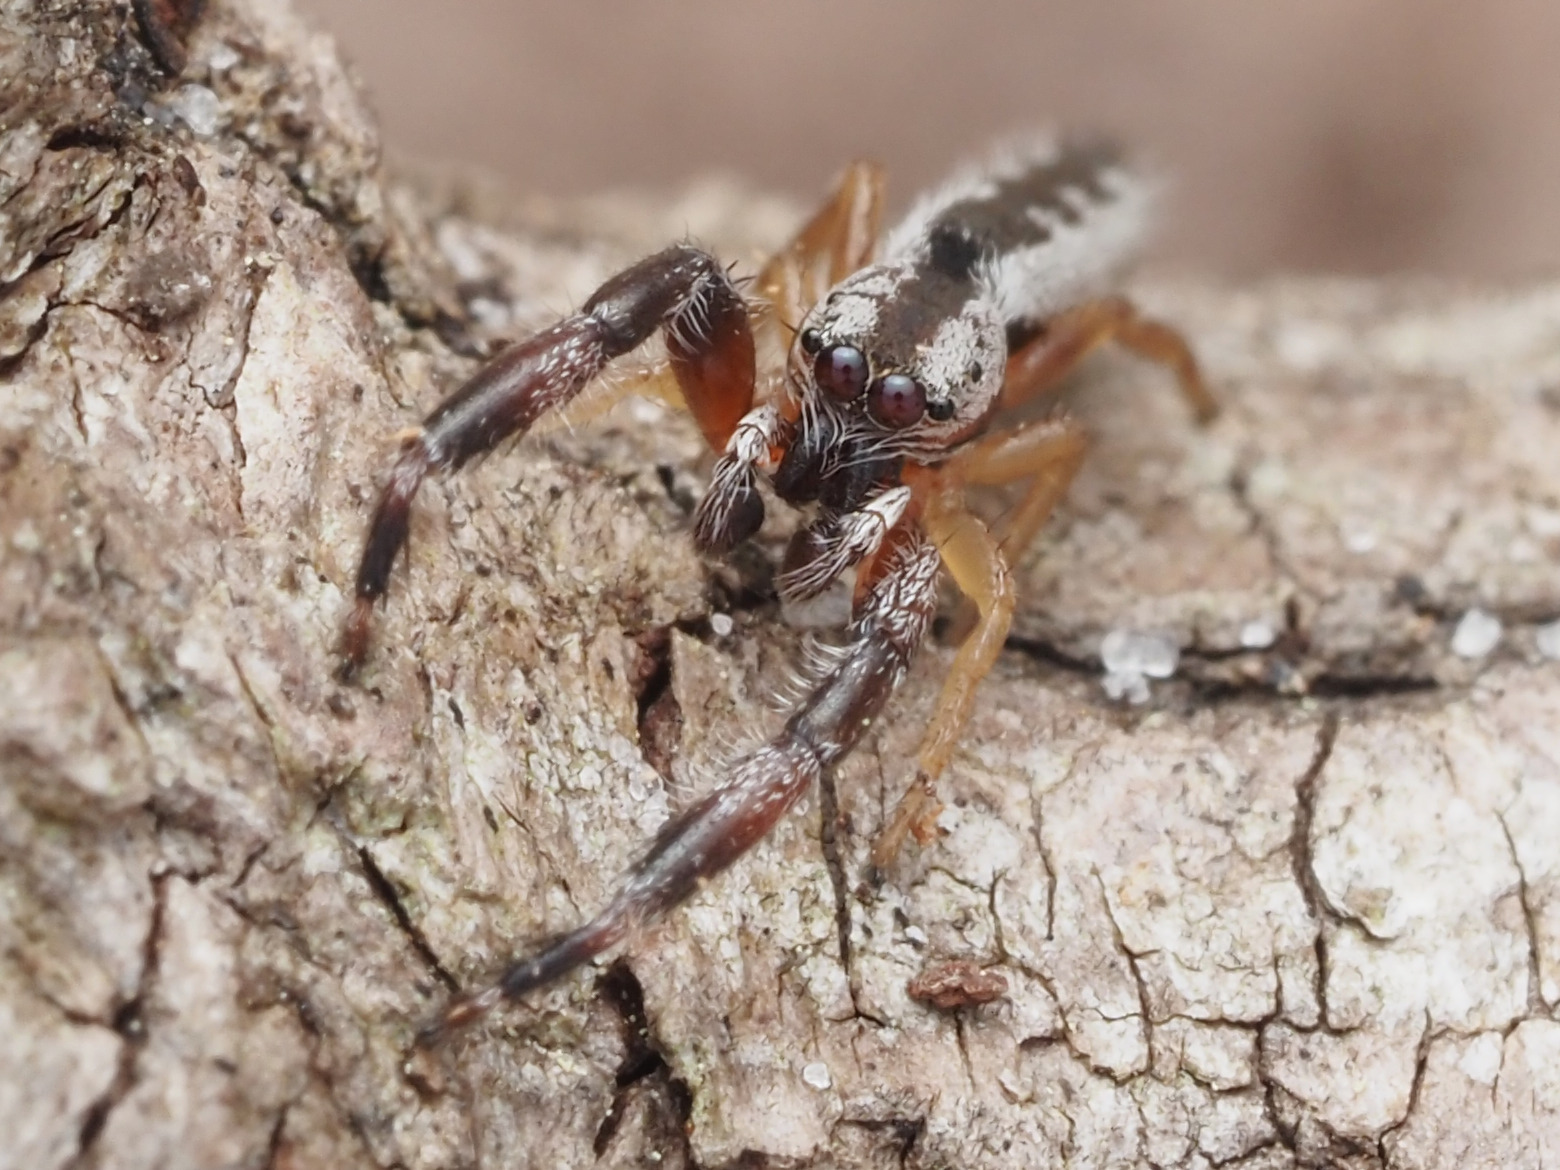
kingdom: Animalia
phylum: Arthropoda
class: Arachnida
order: Araneae
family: Salticidae
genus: Marpissa
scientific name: Marpissa pikei
